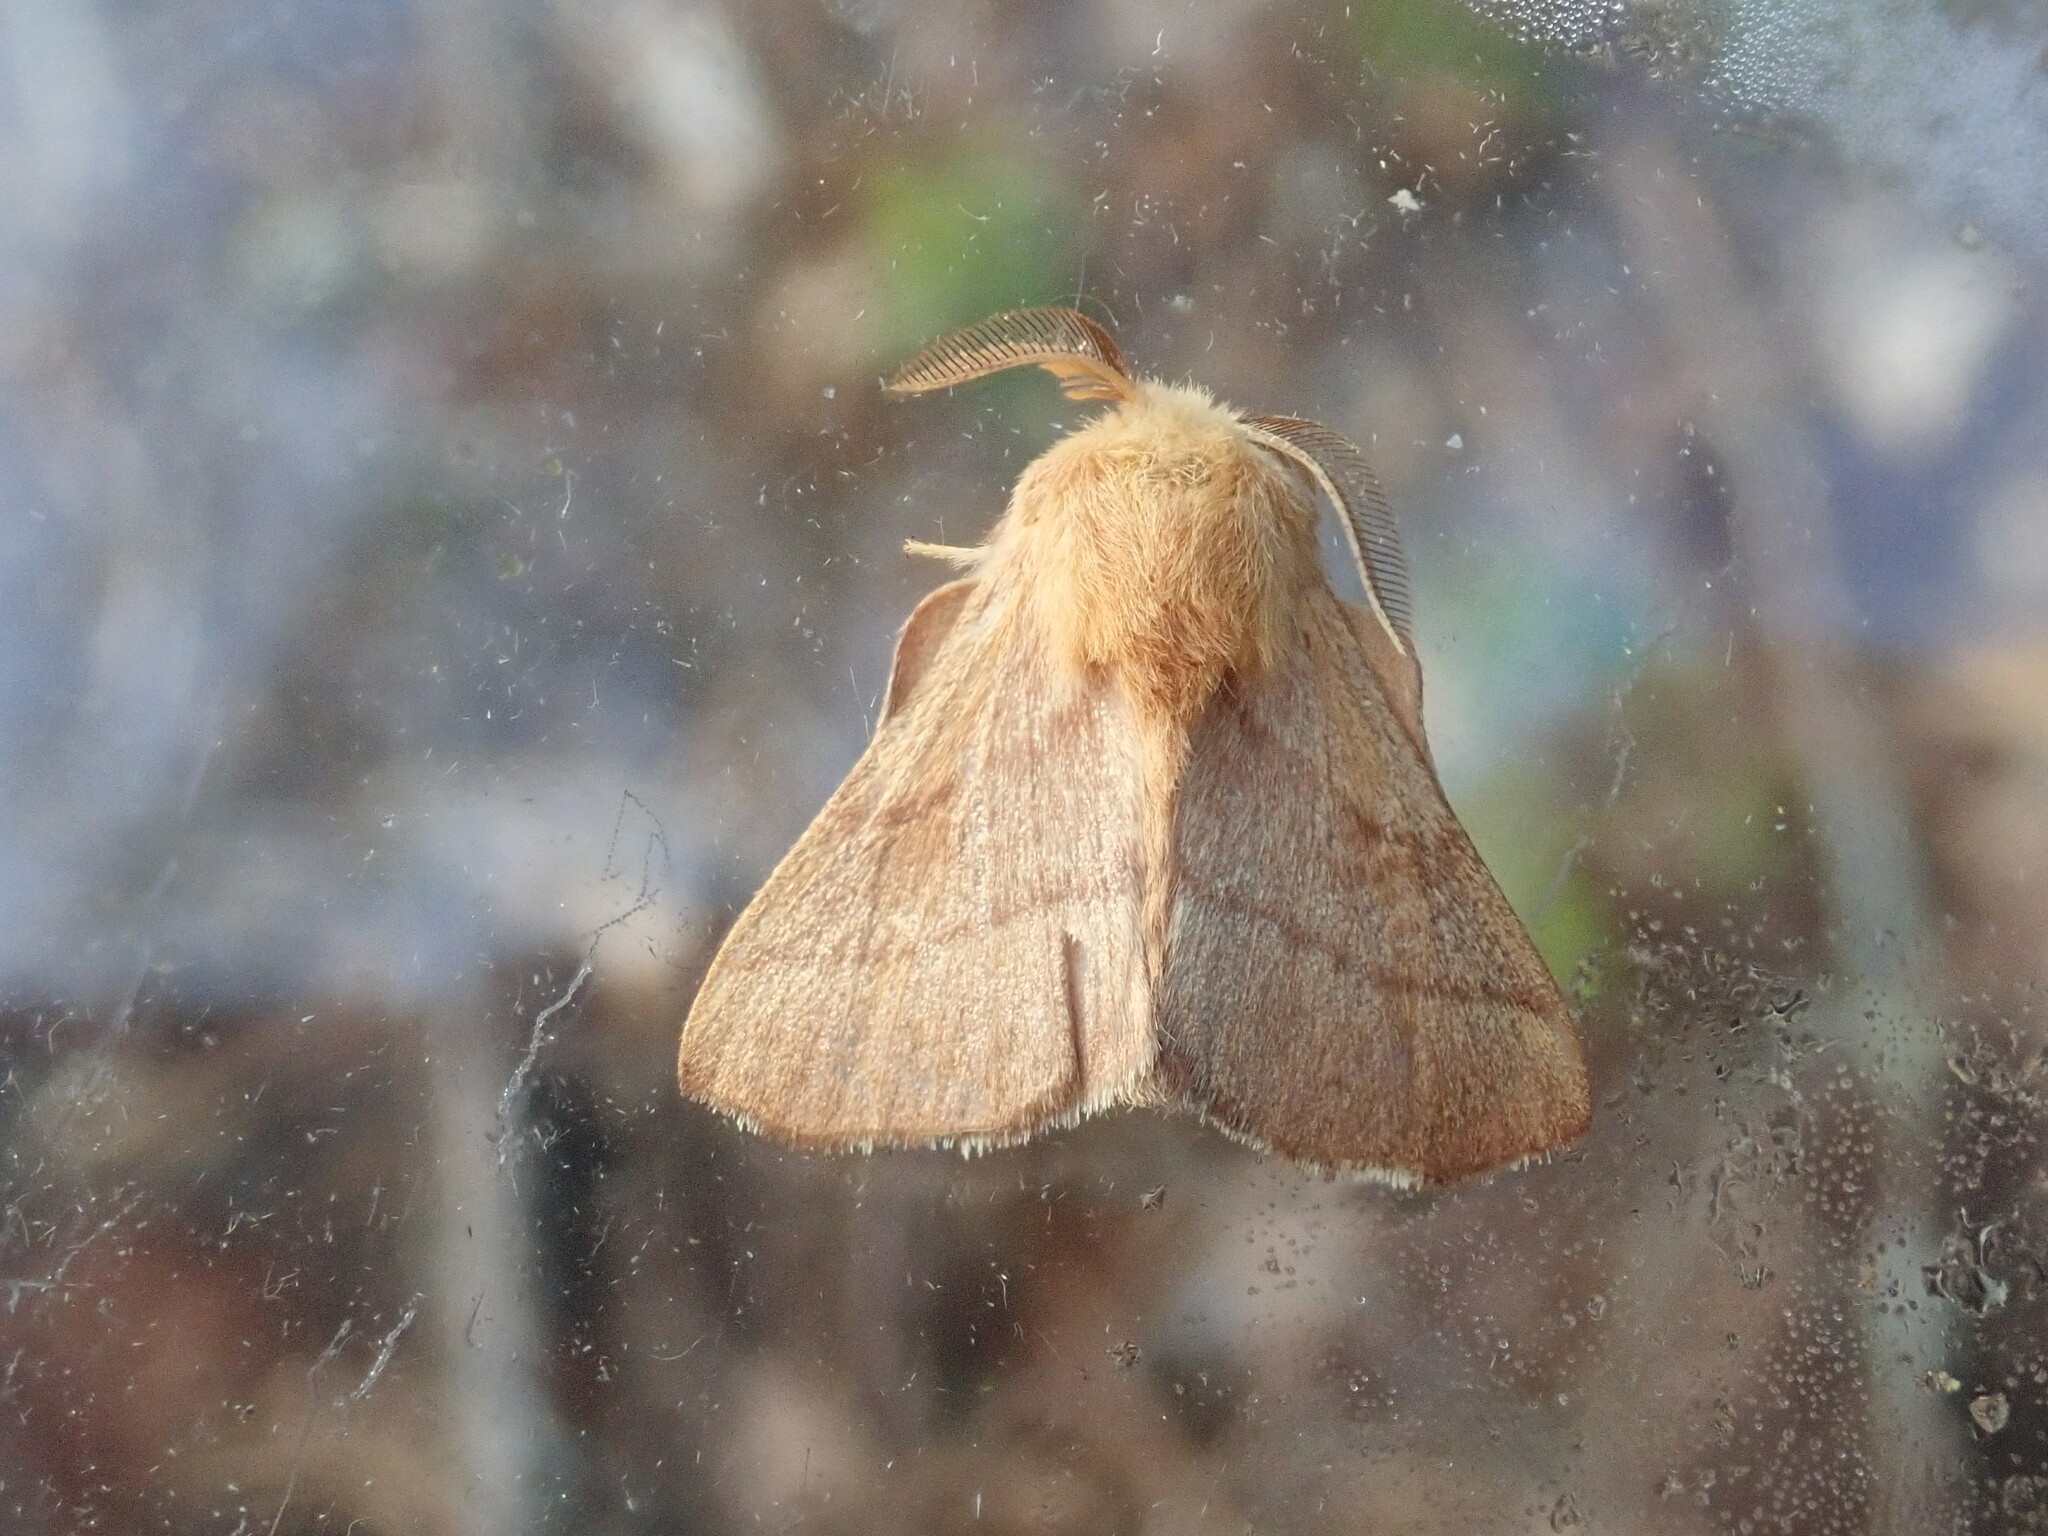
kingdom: Animalia
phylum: Arthropoda
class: Insecta
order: Lepidoptera
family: Lasiocampidae
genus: Malacosoma
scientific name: Malacosoma disstria
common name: Forest tent caterpillar
